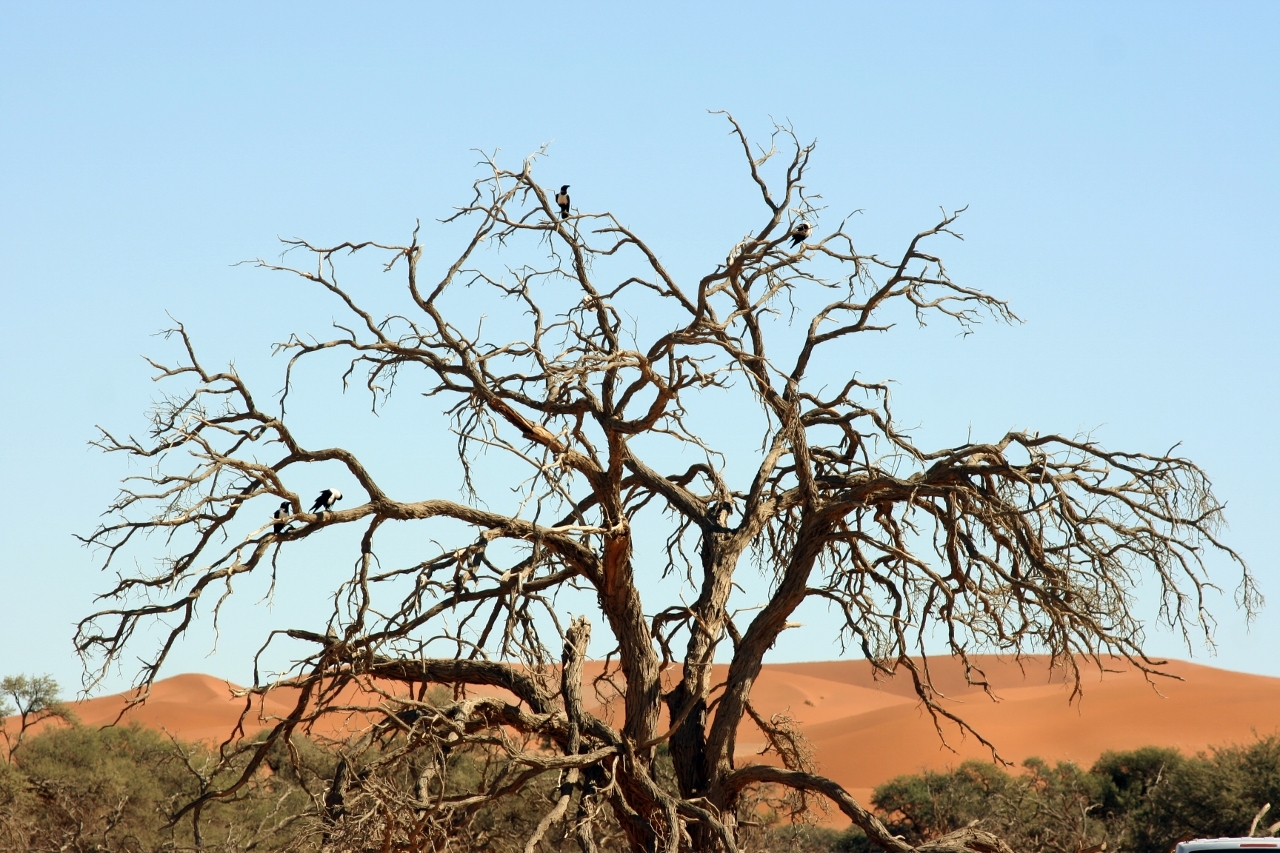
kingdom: Animalia
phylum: Chordata
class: Aves
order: Passeriformes
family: Corvidae
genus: Corvus
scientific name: Corvus albus
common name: Pied crow
